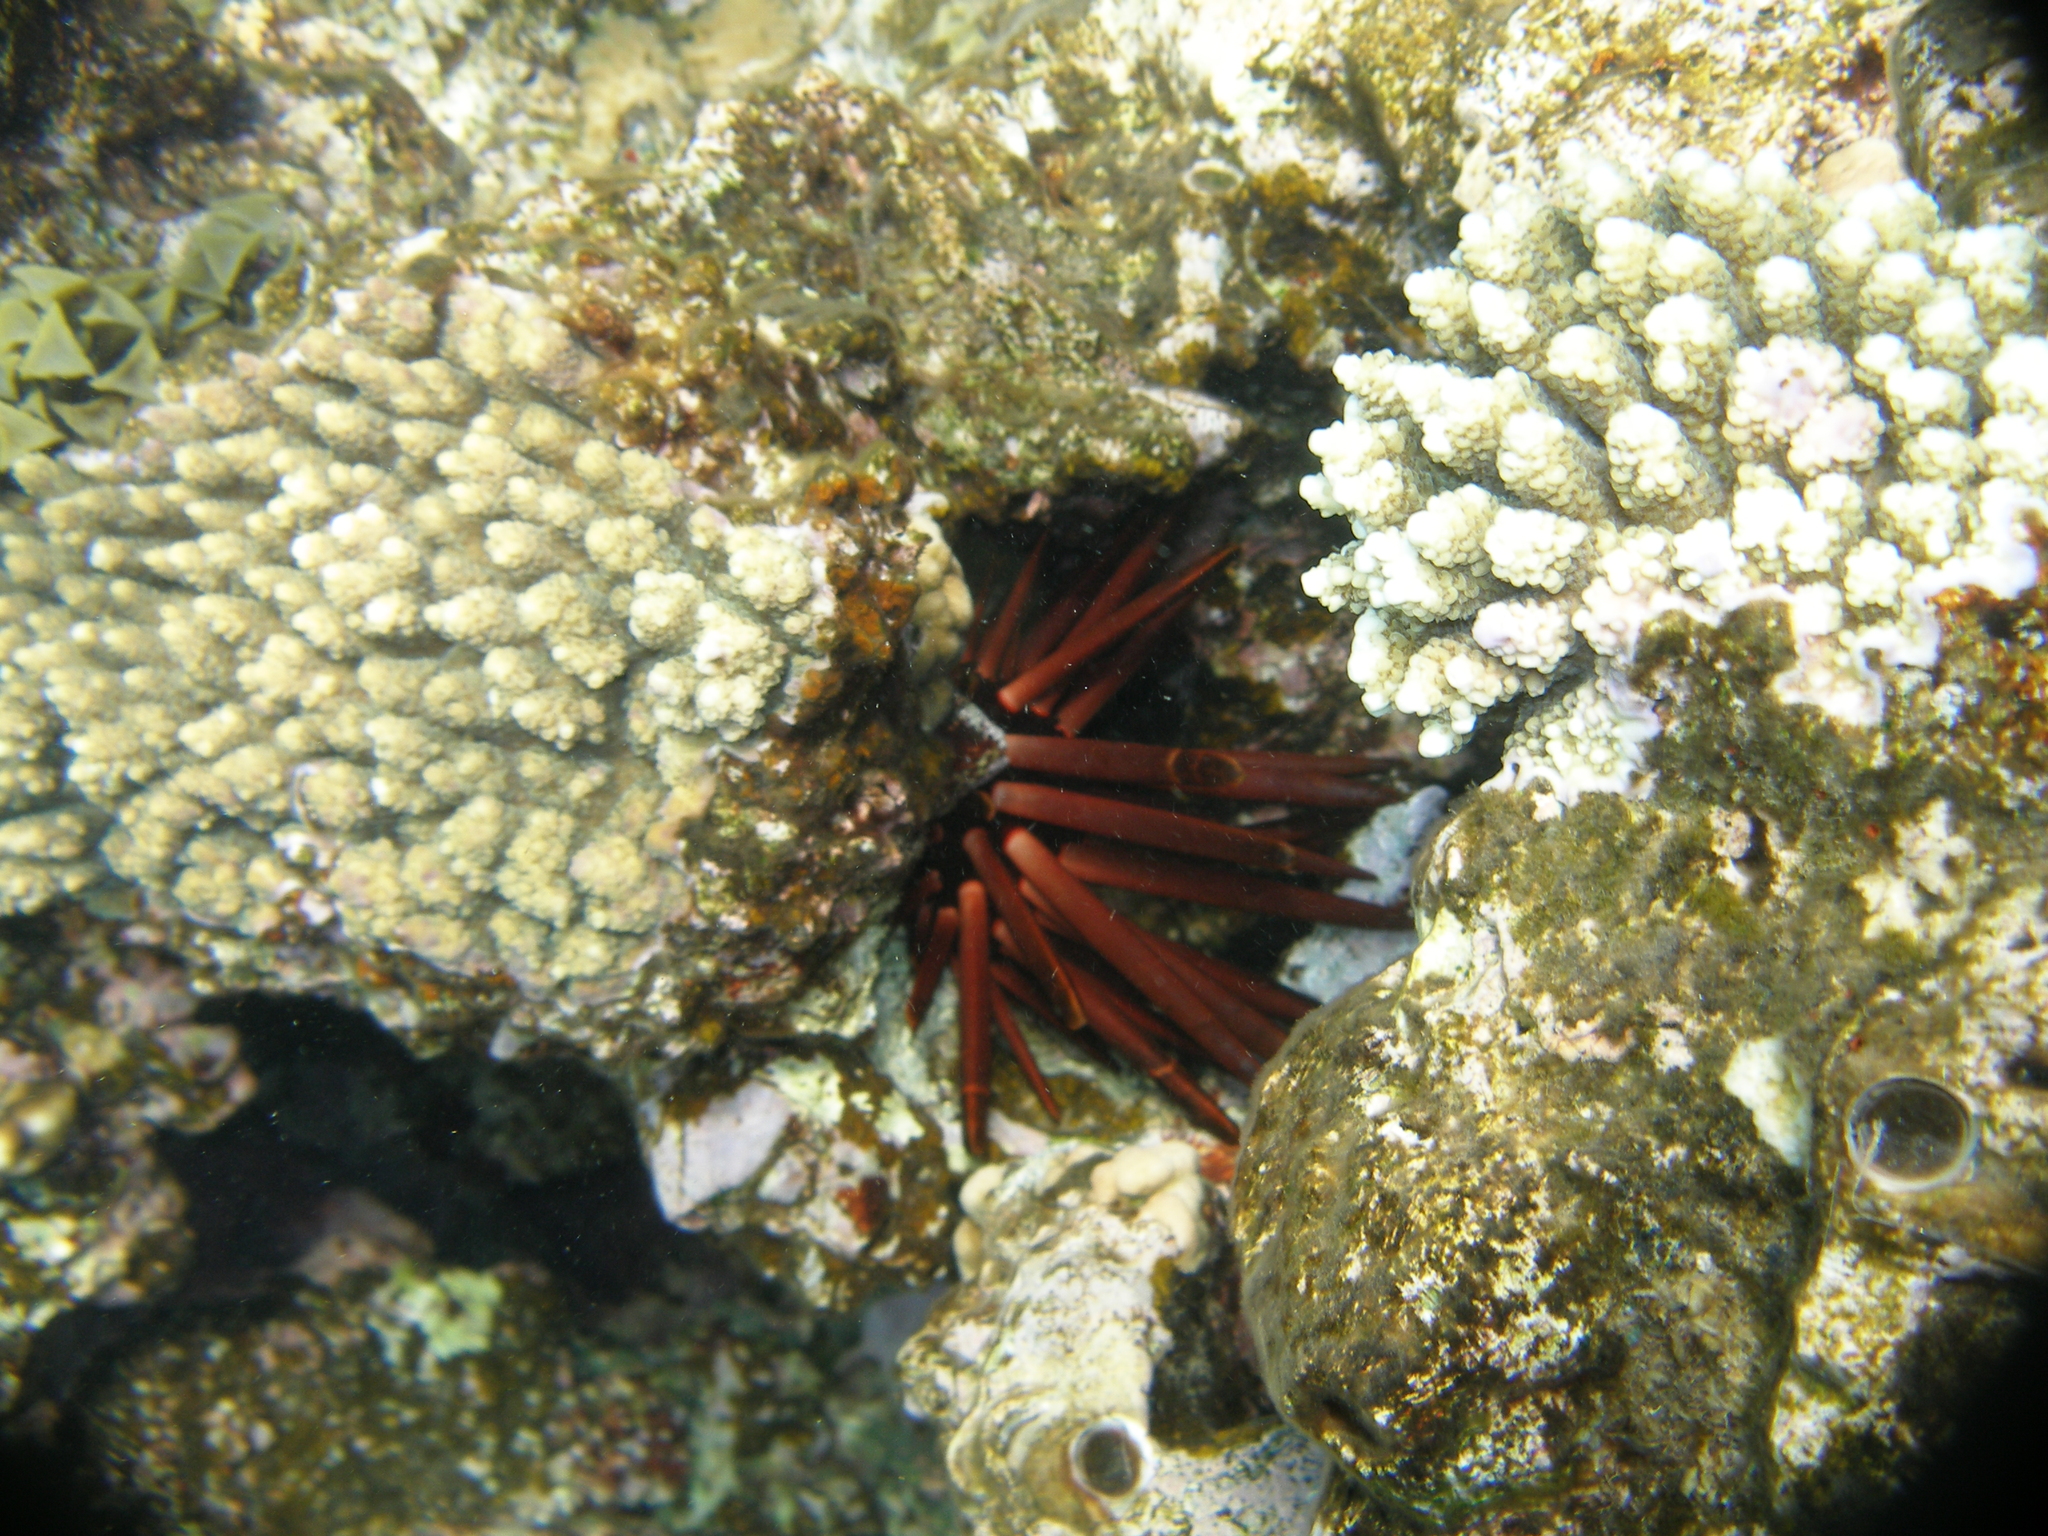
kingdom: Animalia
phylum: Echinodermata
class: Echinoidea
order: Camarodonta
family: Echinometridae
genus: Heterocentrotus
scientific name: Heterocentrotus mamillatus
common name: Slate pencil urchin
